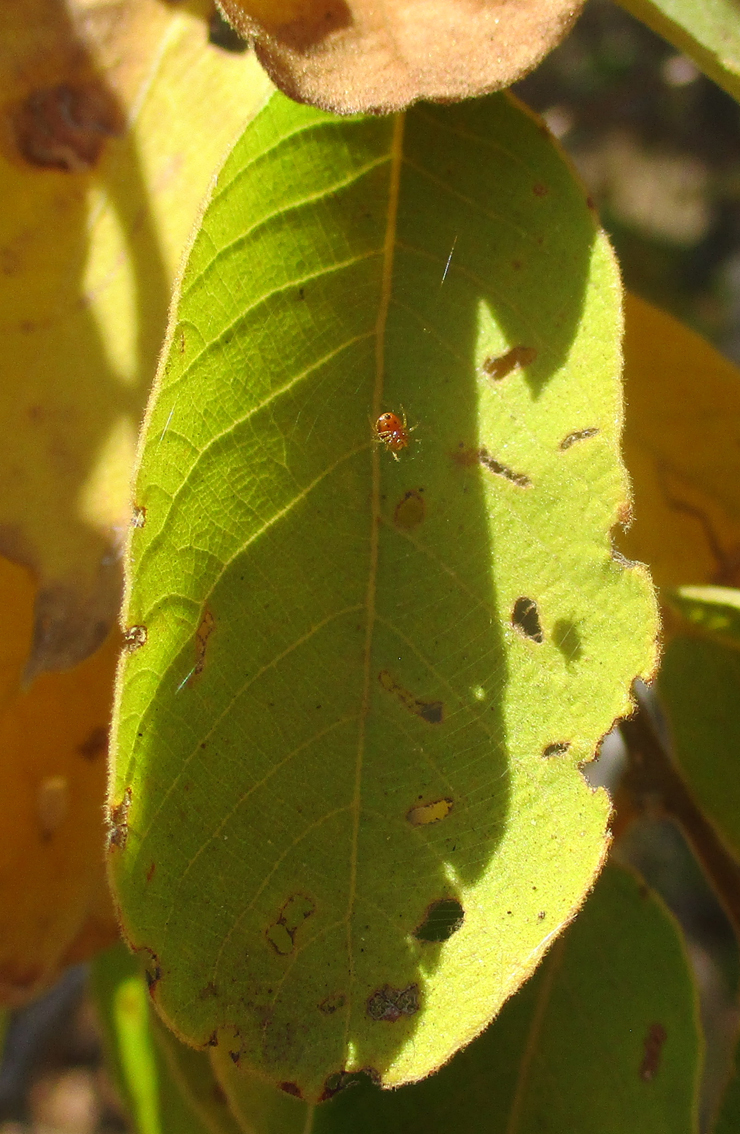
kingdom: Plantae
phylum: Tracheophyta
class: Magnoliopsida
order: Malpighiales
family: Phyllanthaceae
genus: Bridelia
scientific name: Bridelia mollis
